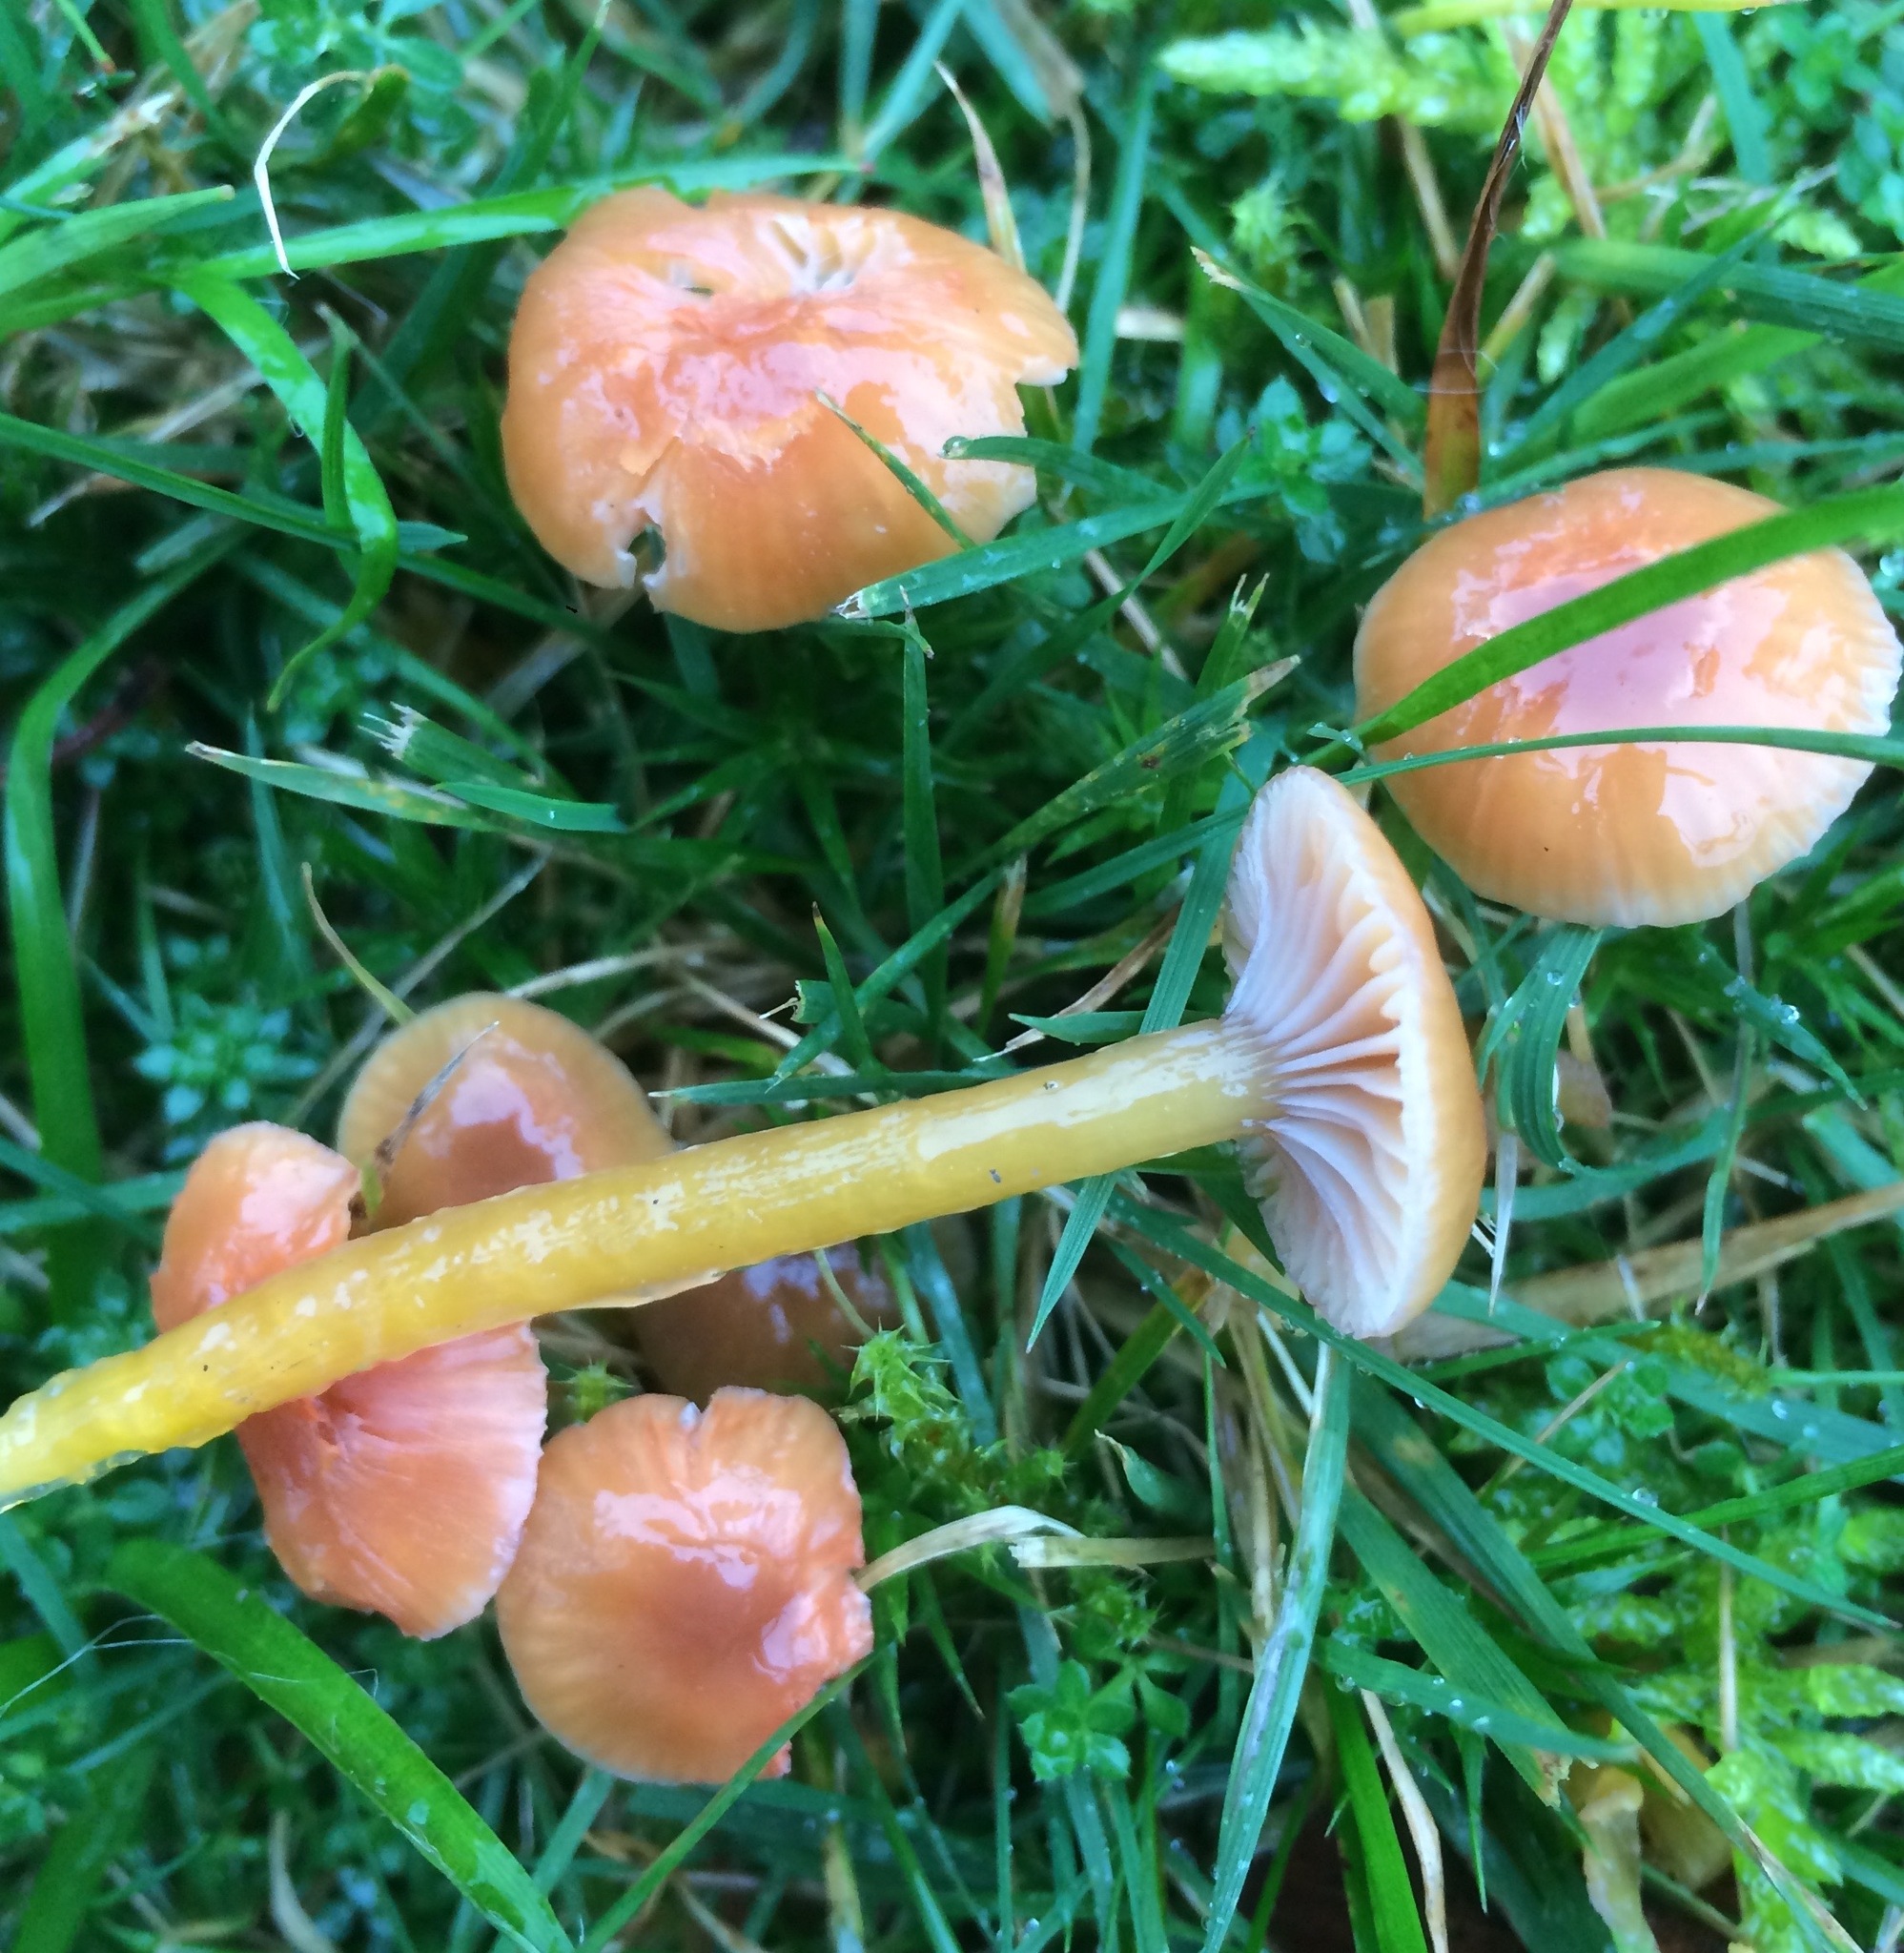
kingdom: Fungi
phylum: Basidiomycota
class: Agaricomycetes
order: Agaricales
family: Hygrophoraceae
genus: Gliophorus
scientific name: Gliophorus laetus
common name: Heath waxcap
